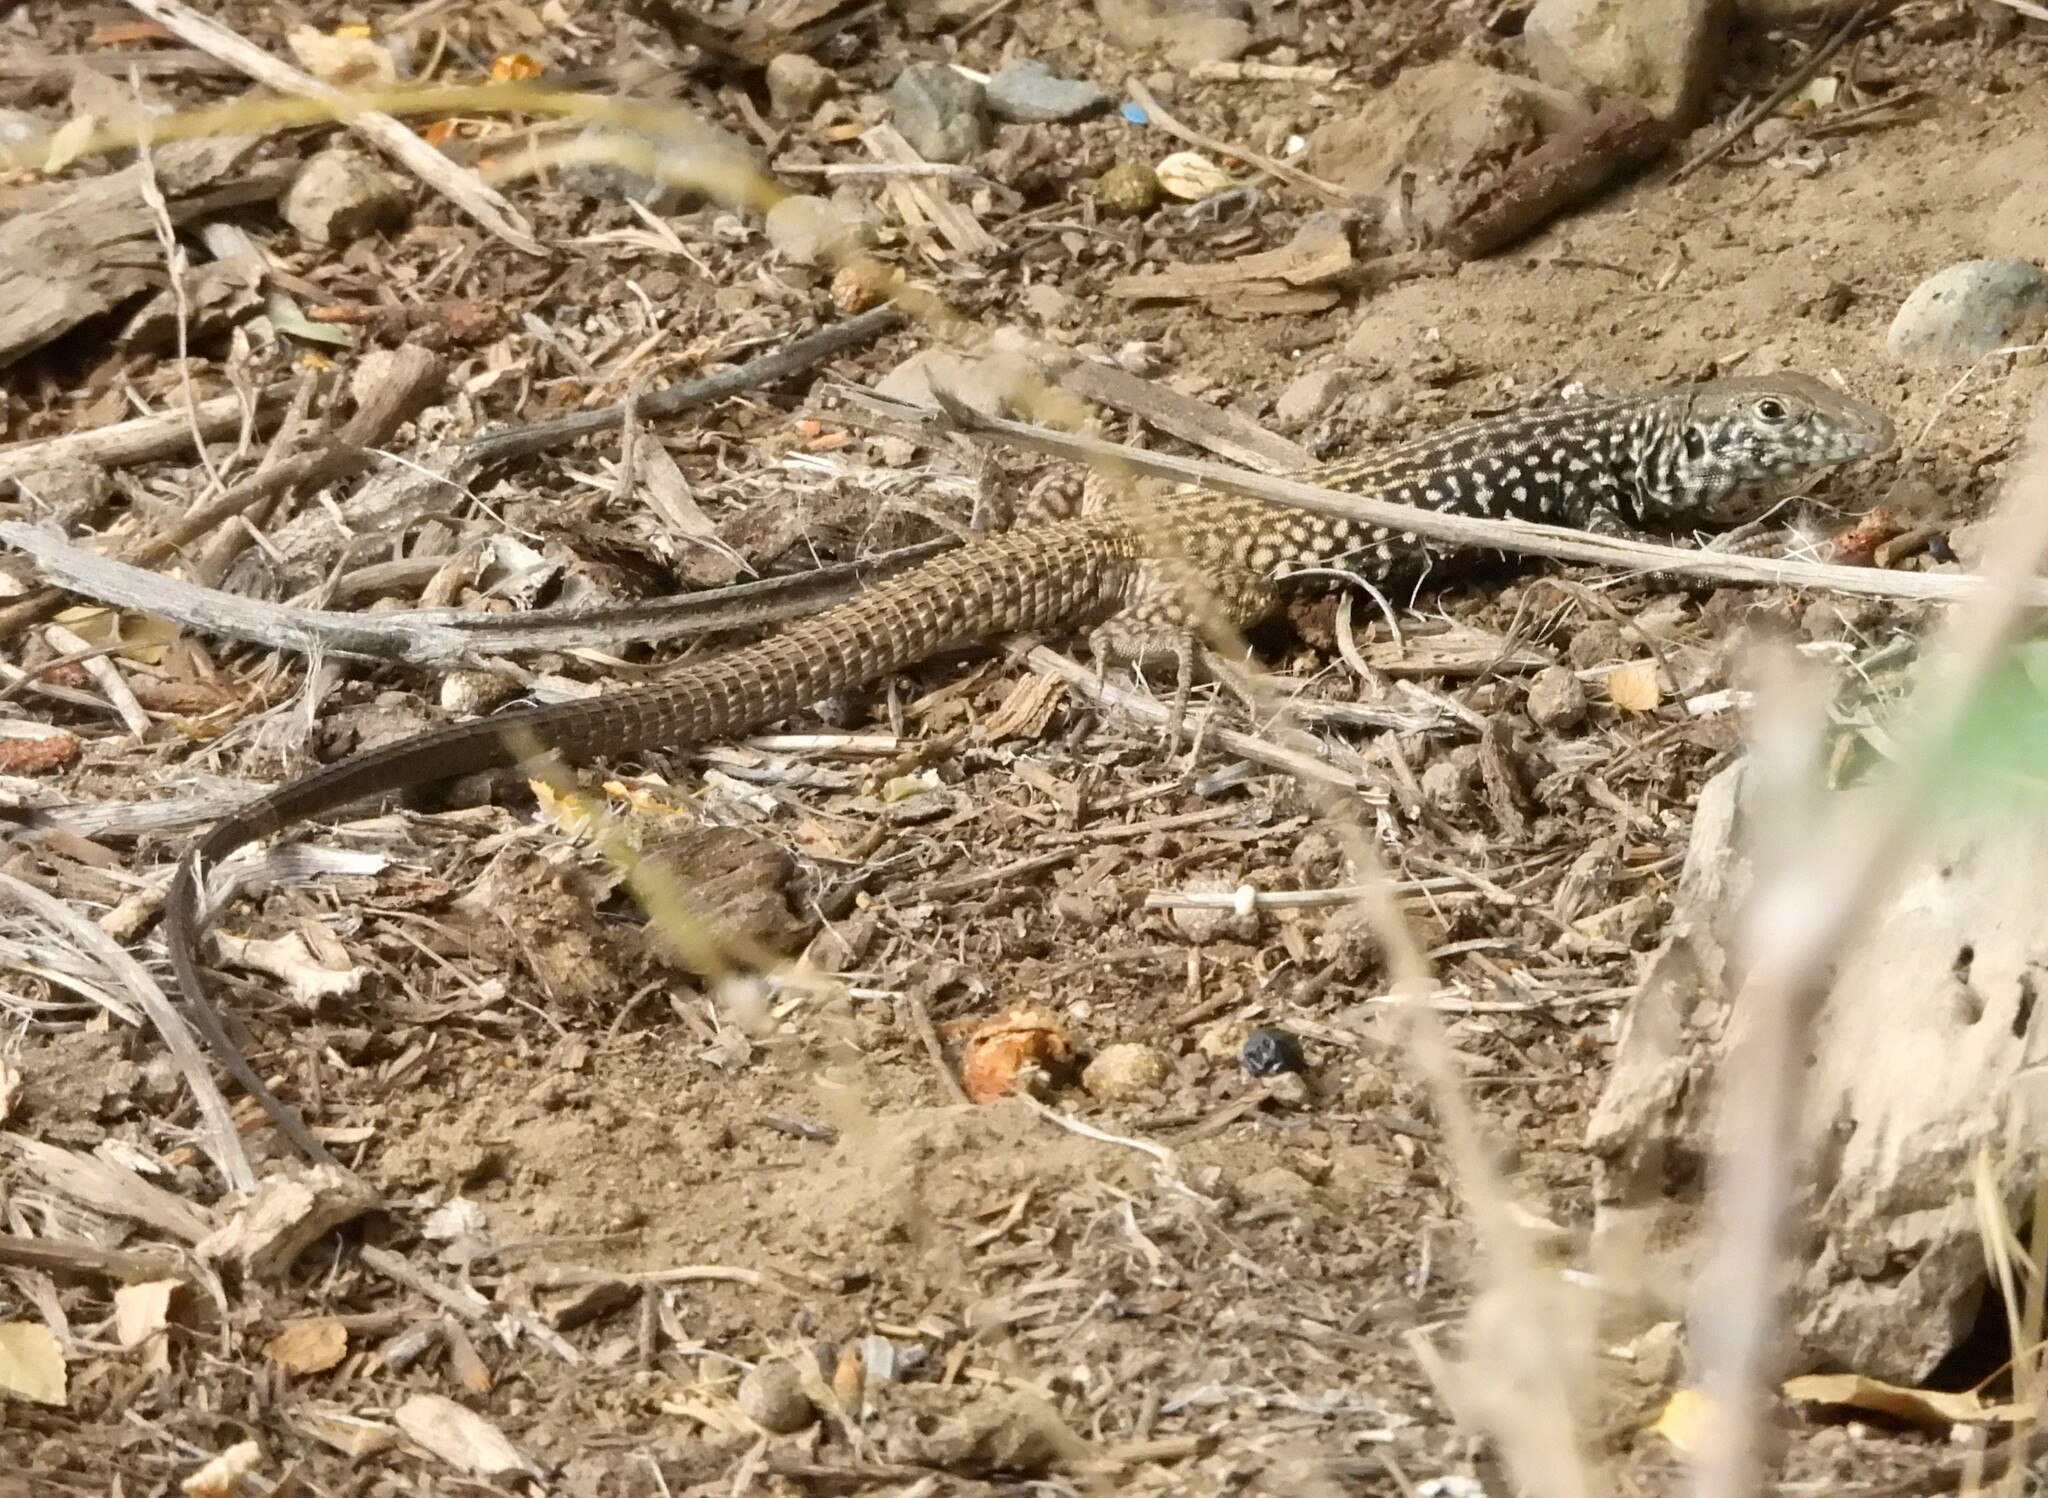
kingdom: Animalia
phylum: Chordata
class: Squamata
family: Teiidae
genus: Aspidoscelis
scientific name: Aspidoscelis tigris
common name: Tiger whiptail
